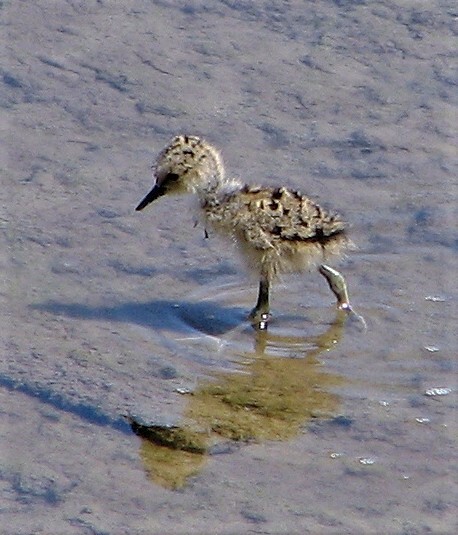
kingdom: Animalia
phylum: Chordata
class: Aves
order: Charadriiformes
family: Recurvirostridae
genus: Himantopus
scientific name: Himantopus mexicanus
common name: Black-necked stilt
